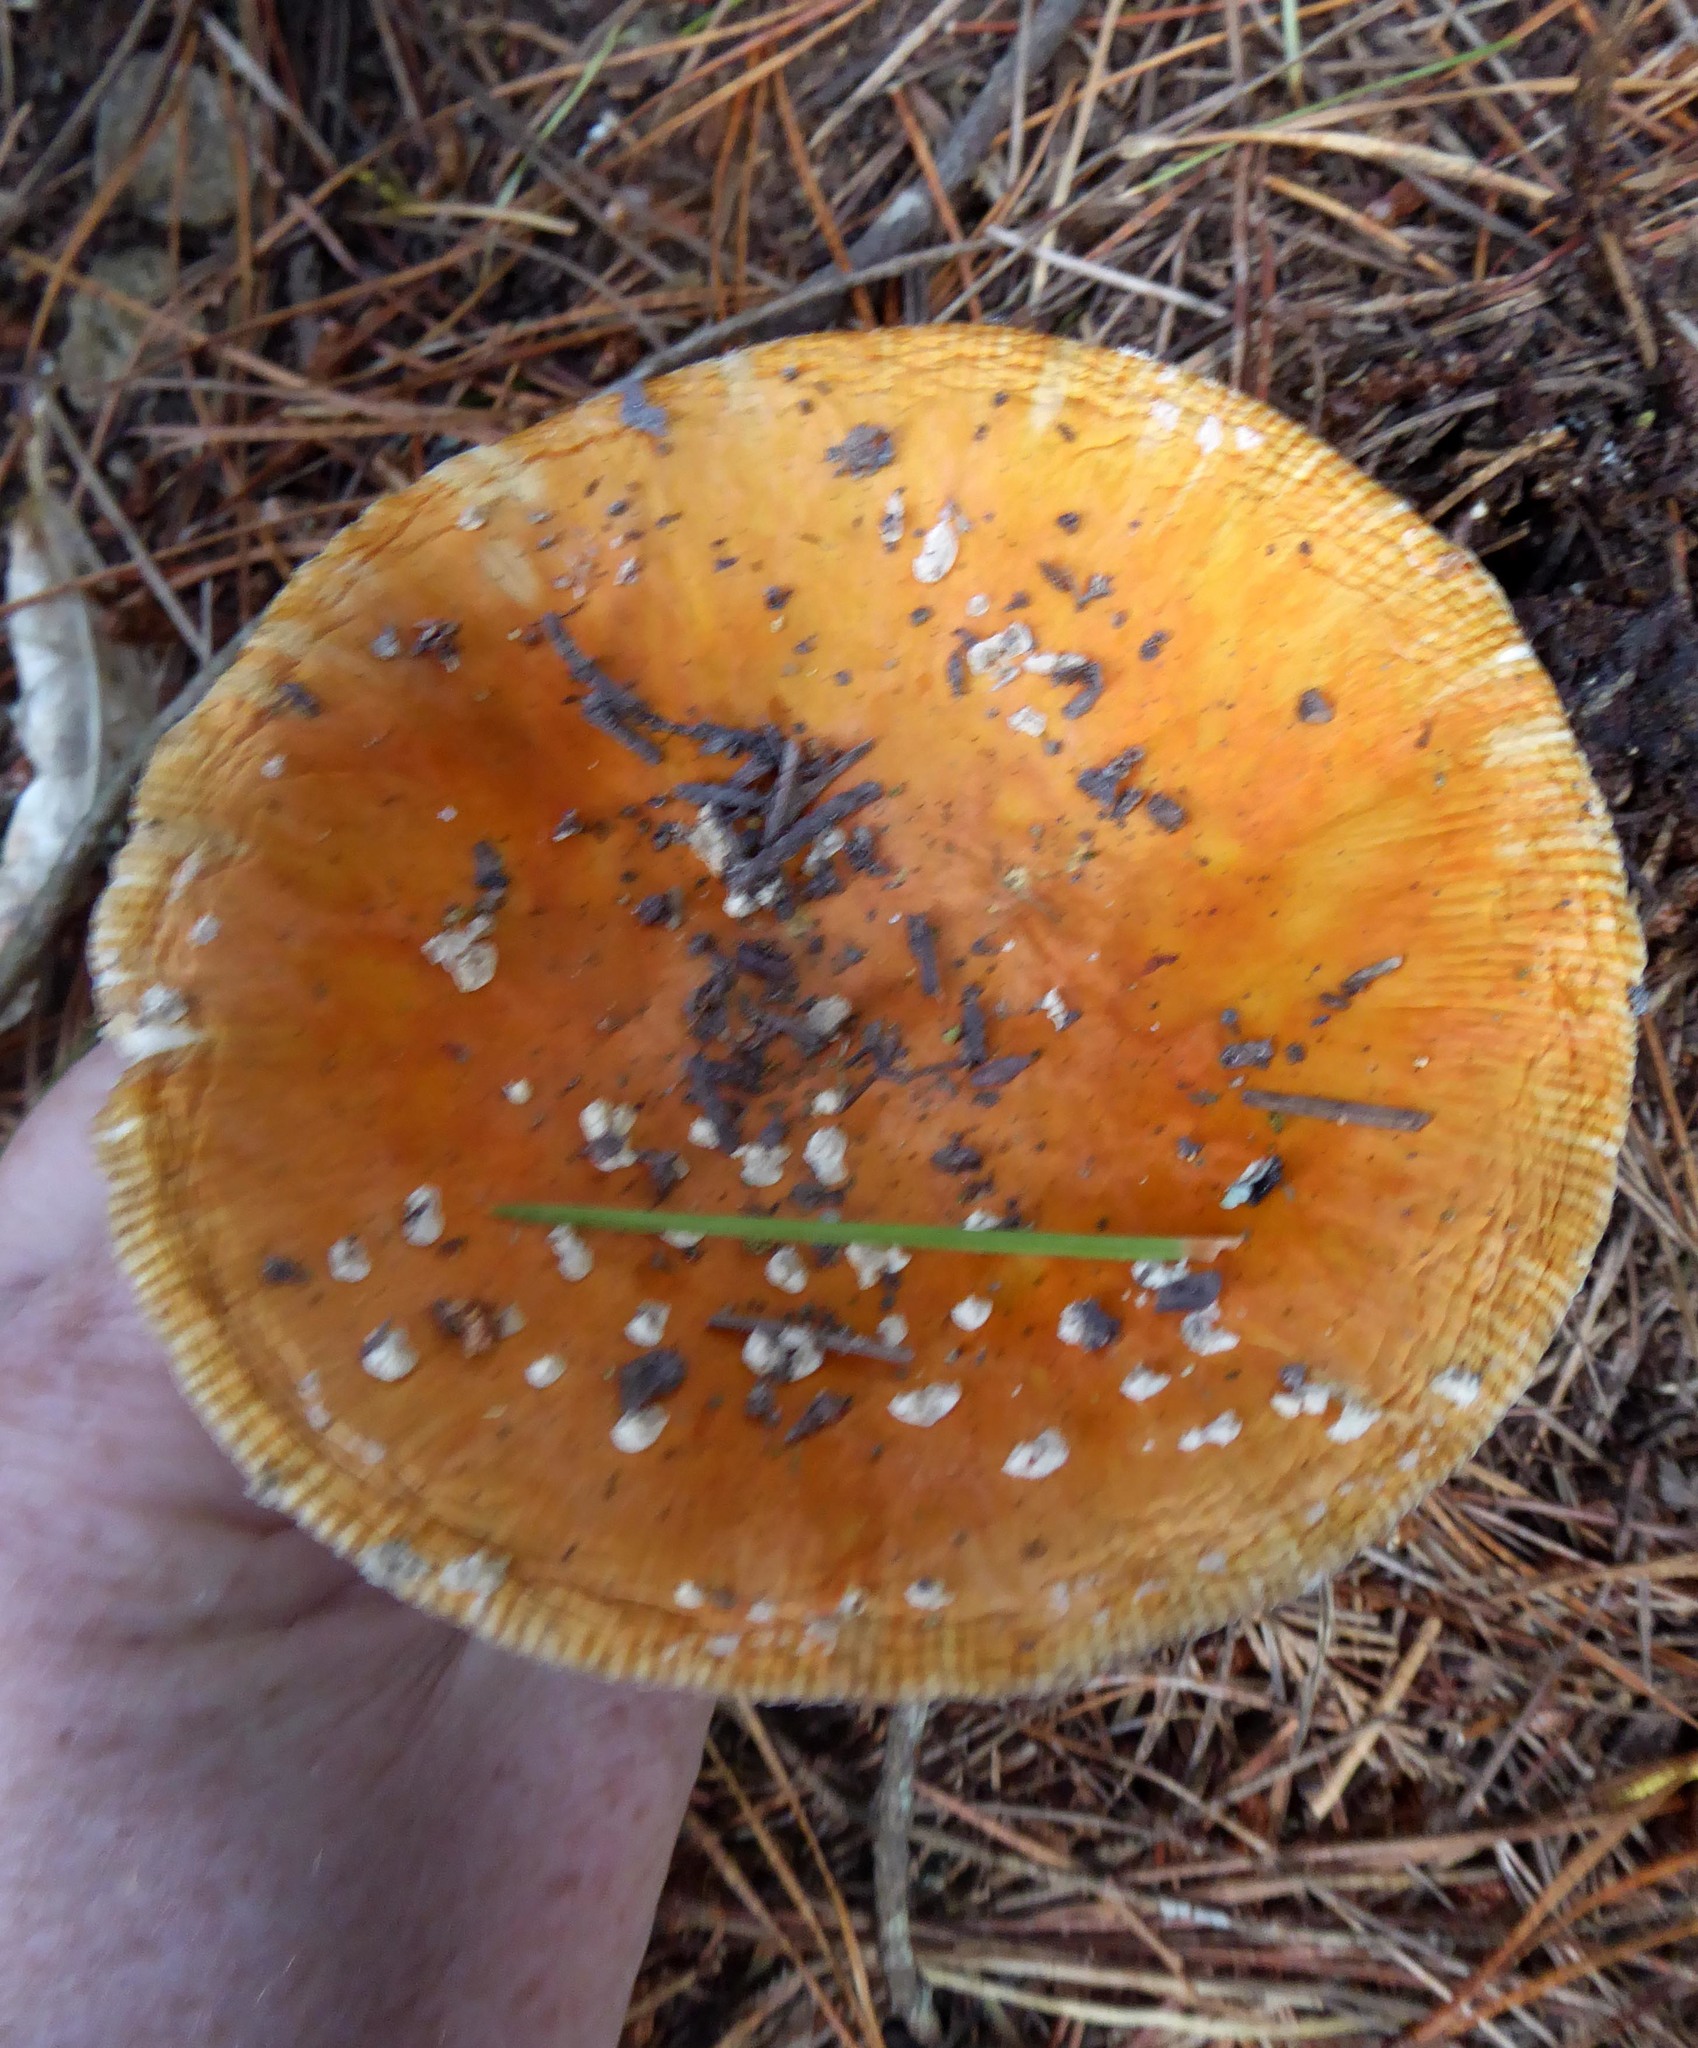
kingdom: Fungi
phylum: Basidiomycota
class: Agaricomycetes
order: Agaricales
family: Amanitaceae
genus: Amanita
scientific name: Amanita muscaria
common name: Fly agaric
